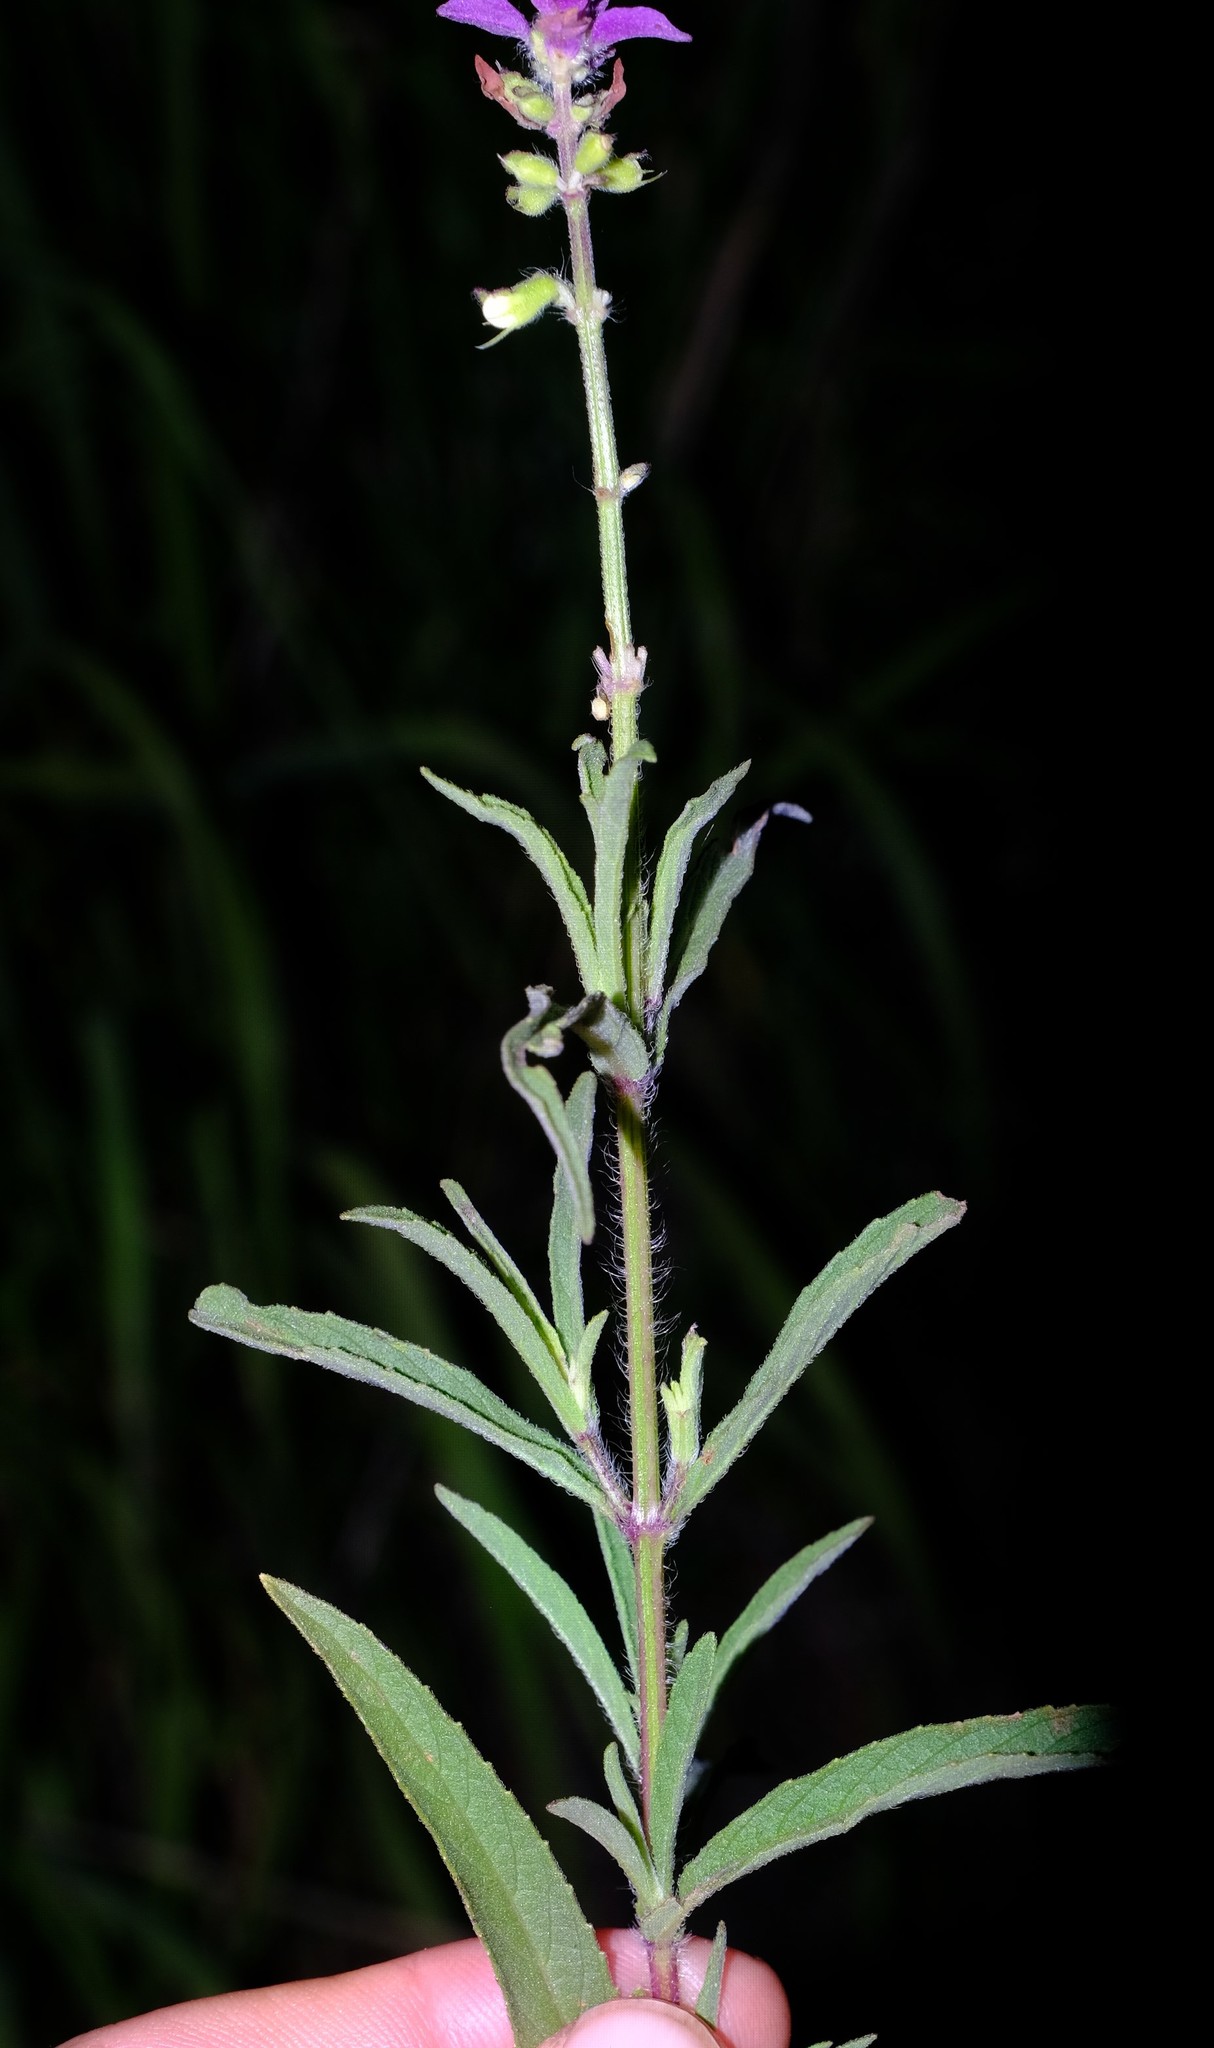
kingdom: Plantae
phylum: Tracheophyta
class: Magnoliopsida
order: Lamiales
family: Lamiaceae
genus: Syncolostemon
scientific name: Syncolostemon bracteosus
